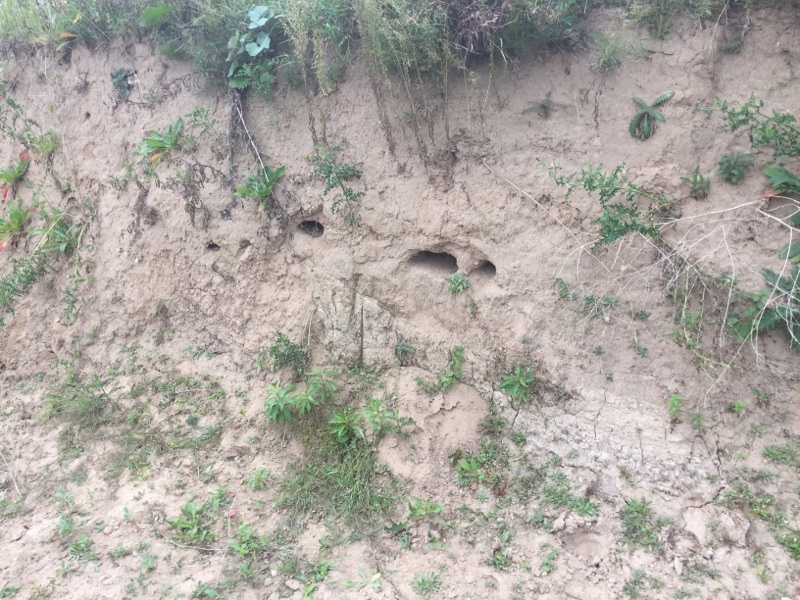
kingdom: Animalia
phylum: Chordata
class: Aves
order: Passeriformes
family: Hirundinidae
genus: Riparia
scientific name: Riparia riparia
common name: Sand martin
